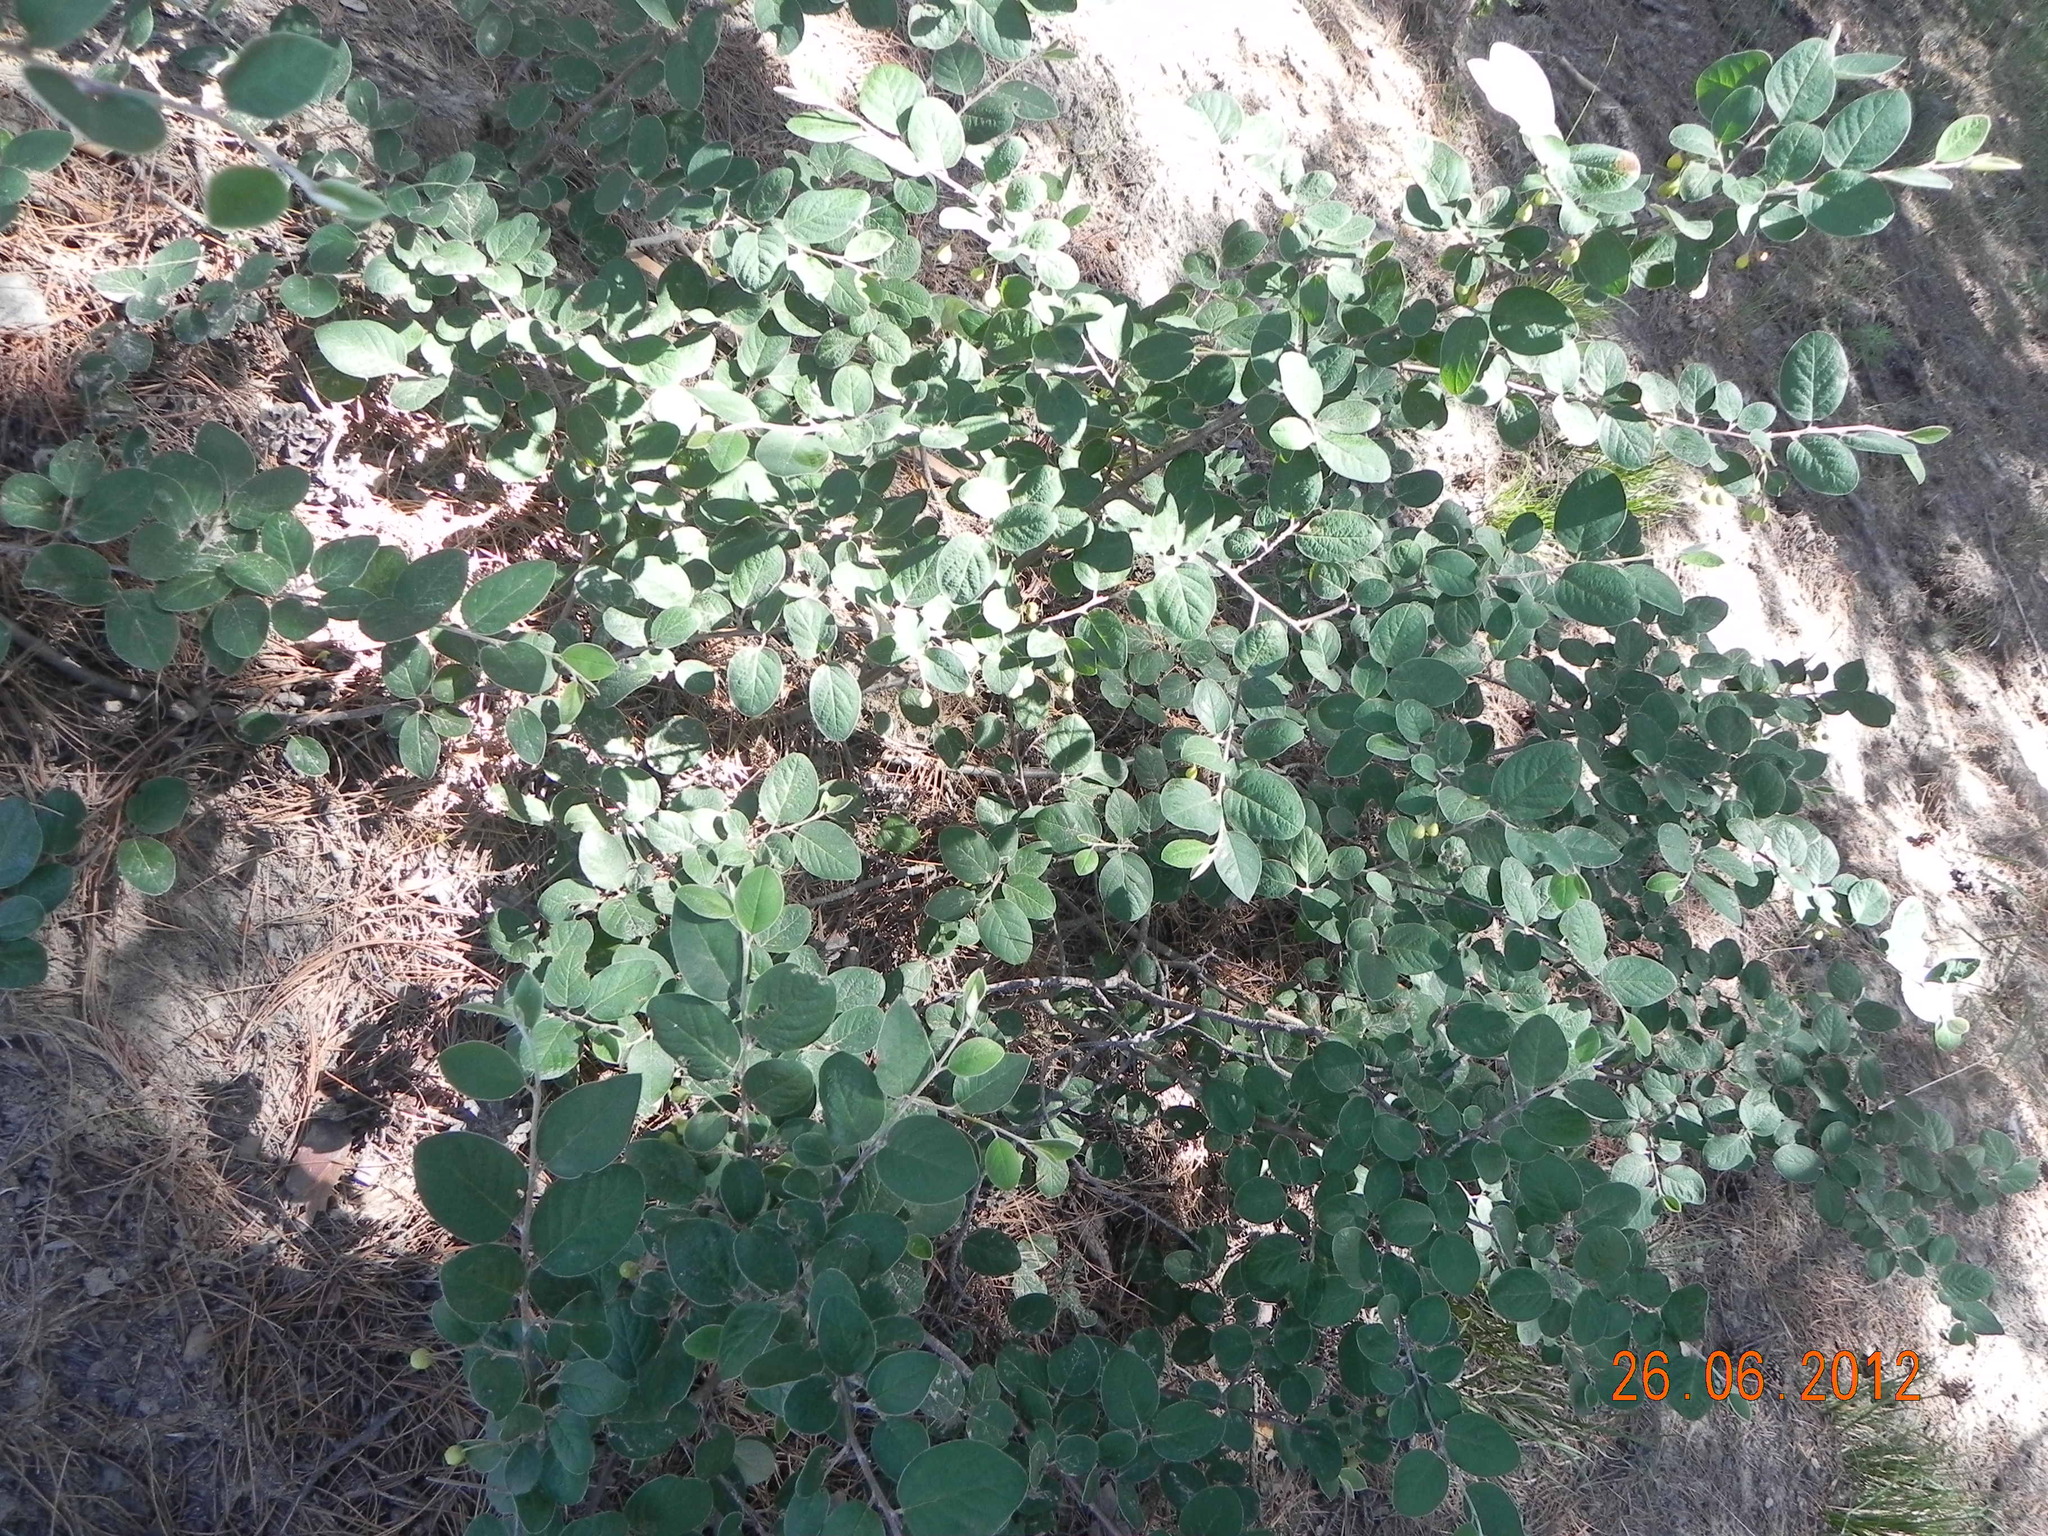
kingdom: Plantae
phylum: Tracheophyta
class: Magnoliopsida
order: Rosales
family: Rosaceae
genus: Cotoneaster
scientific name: Cotoneaster melanocarpus
